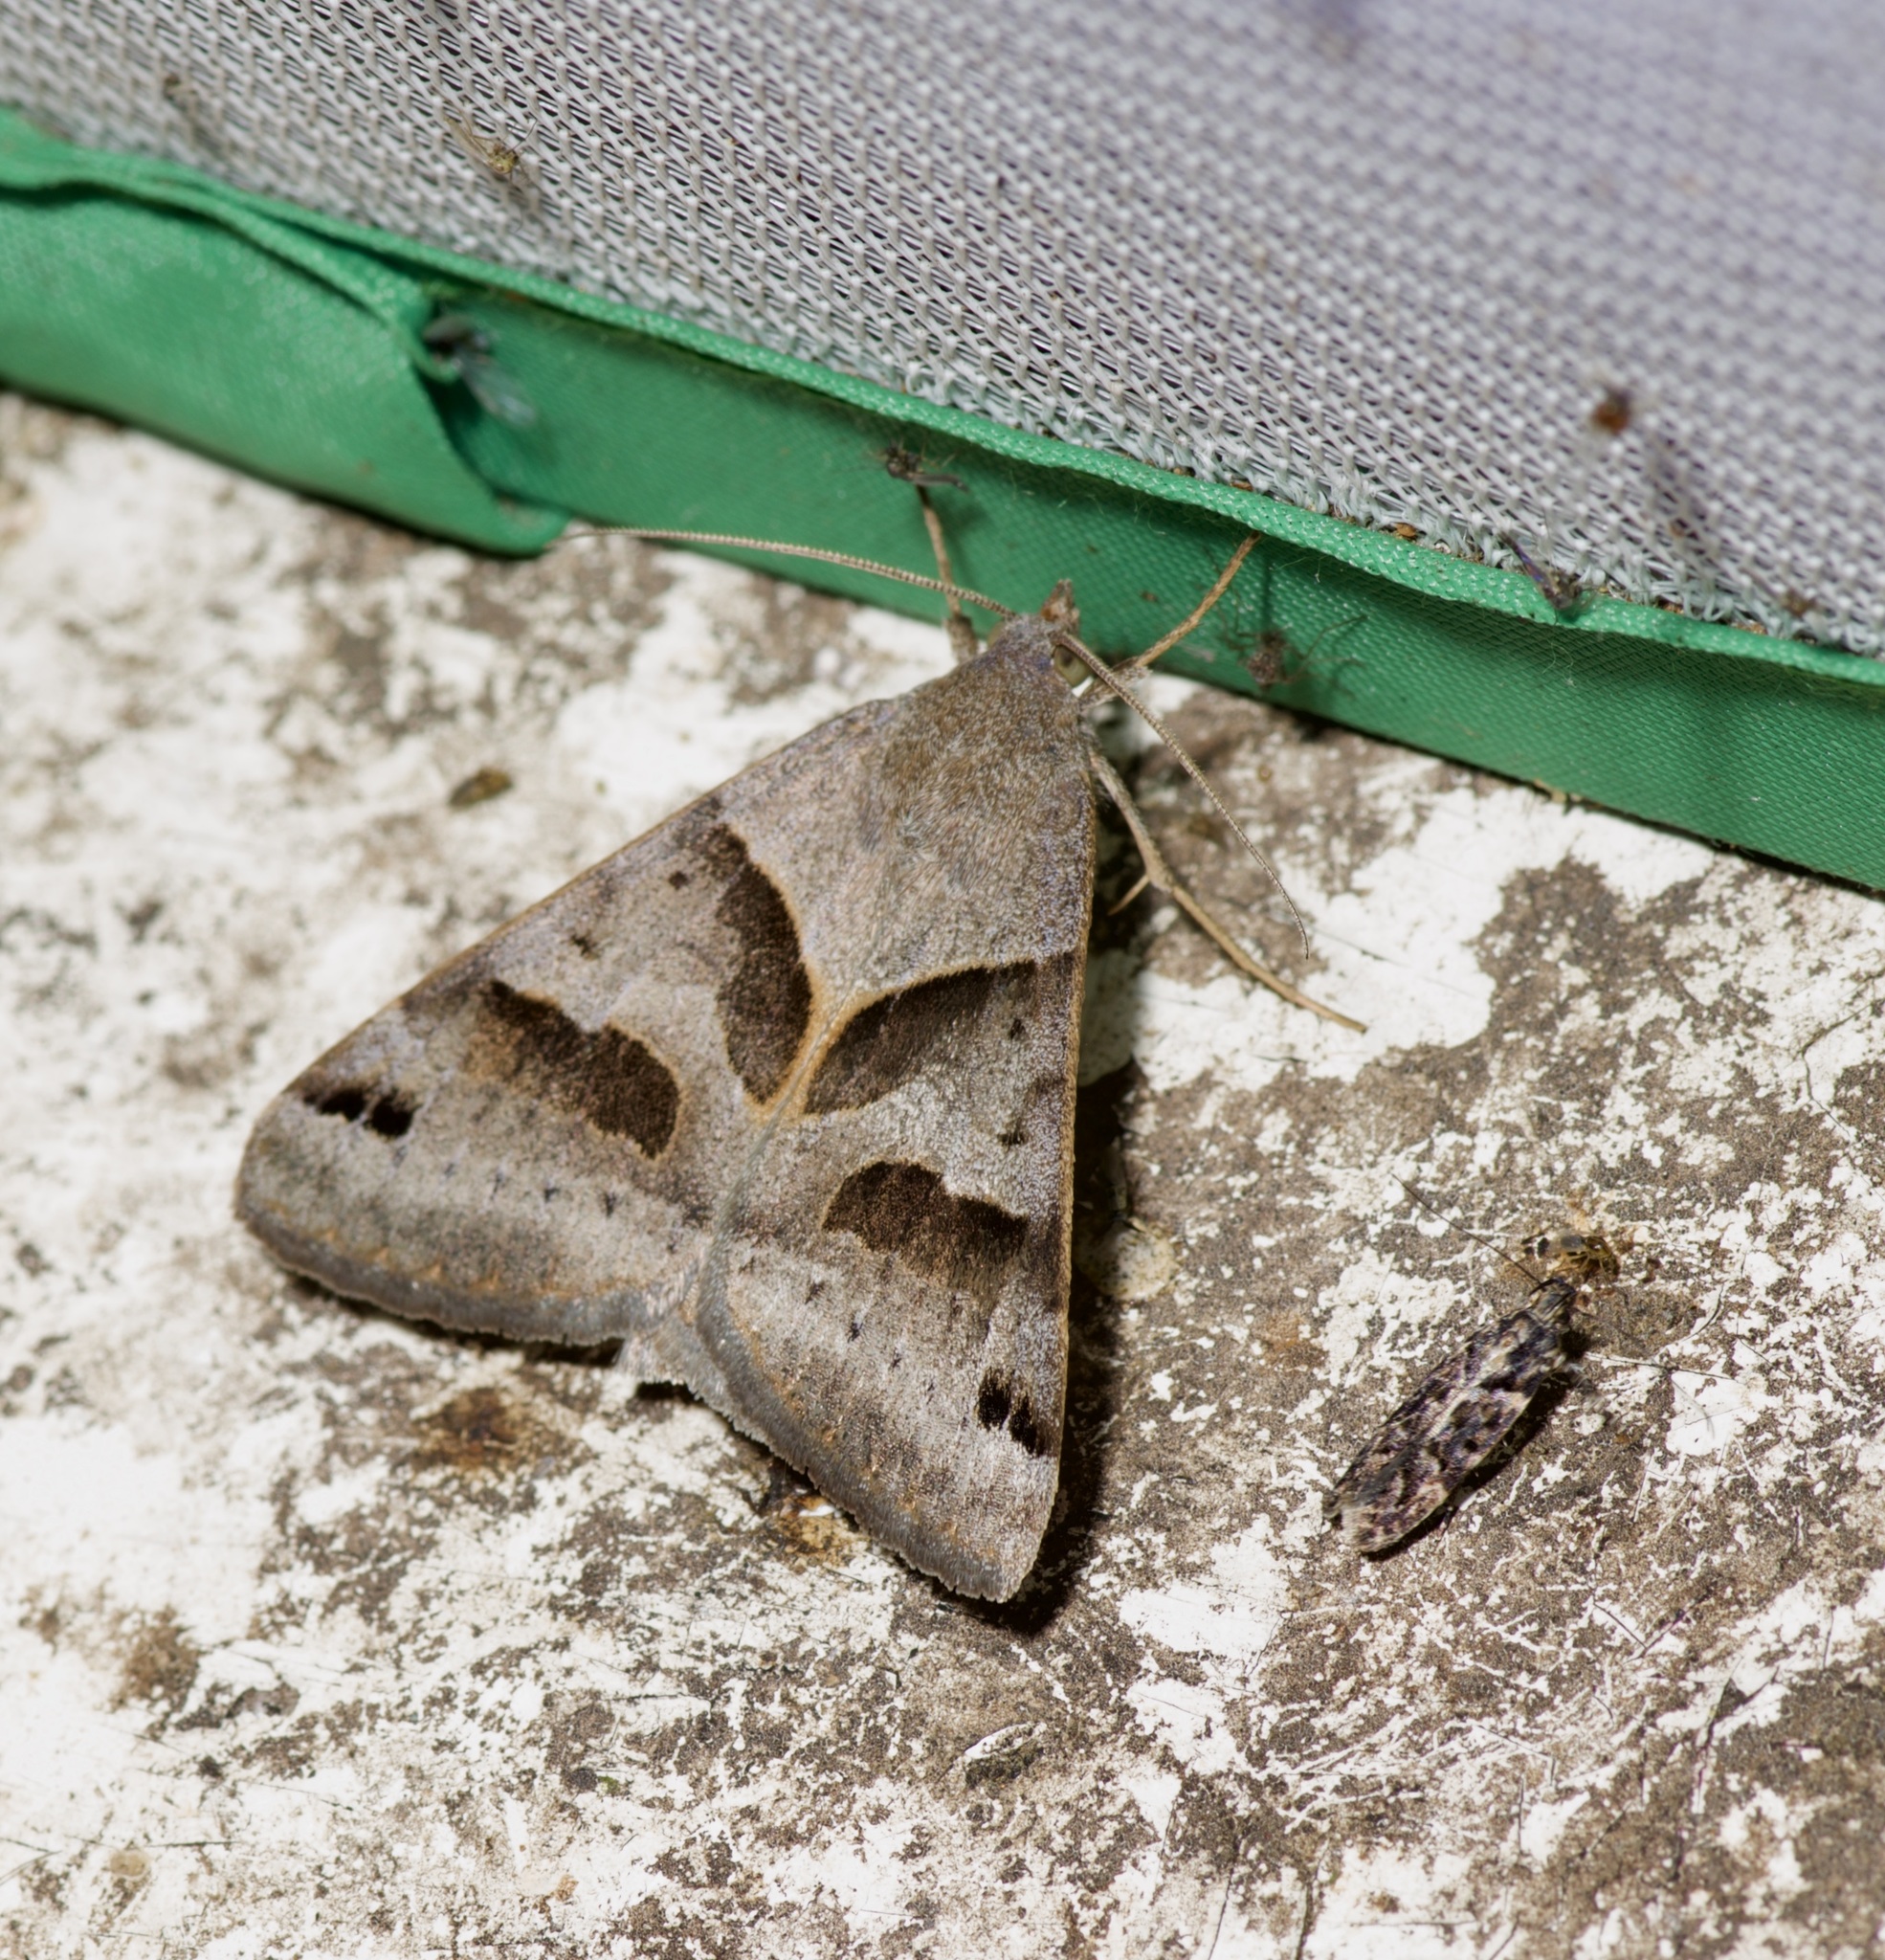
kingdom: Animalia
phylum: Arthropoda
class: Insecta
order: Lepidoptera
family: Erebidae
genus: Caenurgina
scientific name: Caenurgina erechtea
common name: Forage looper moth
